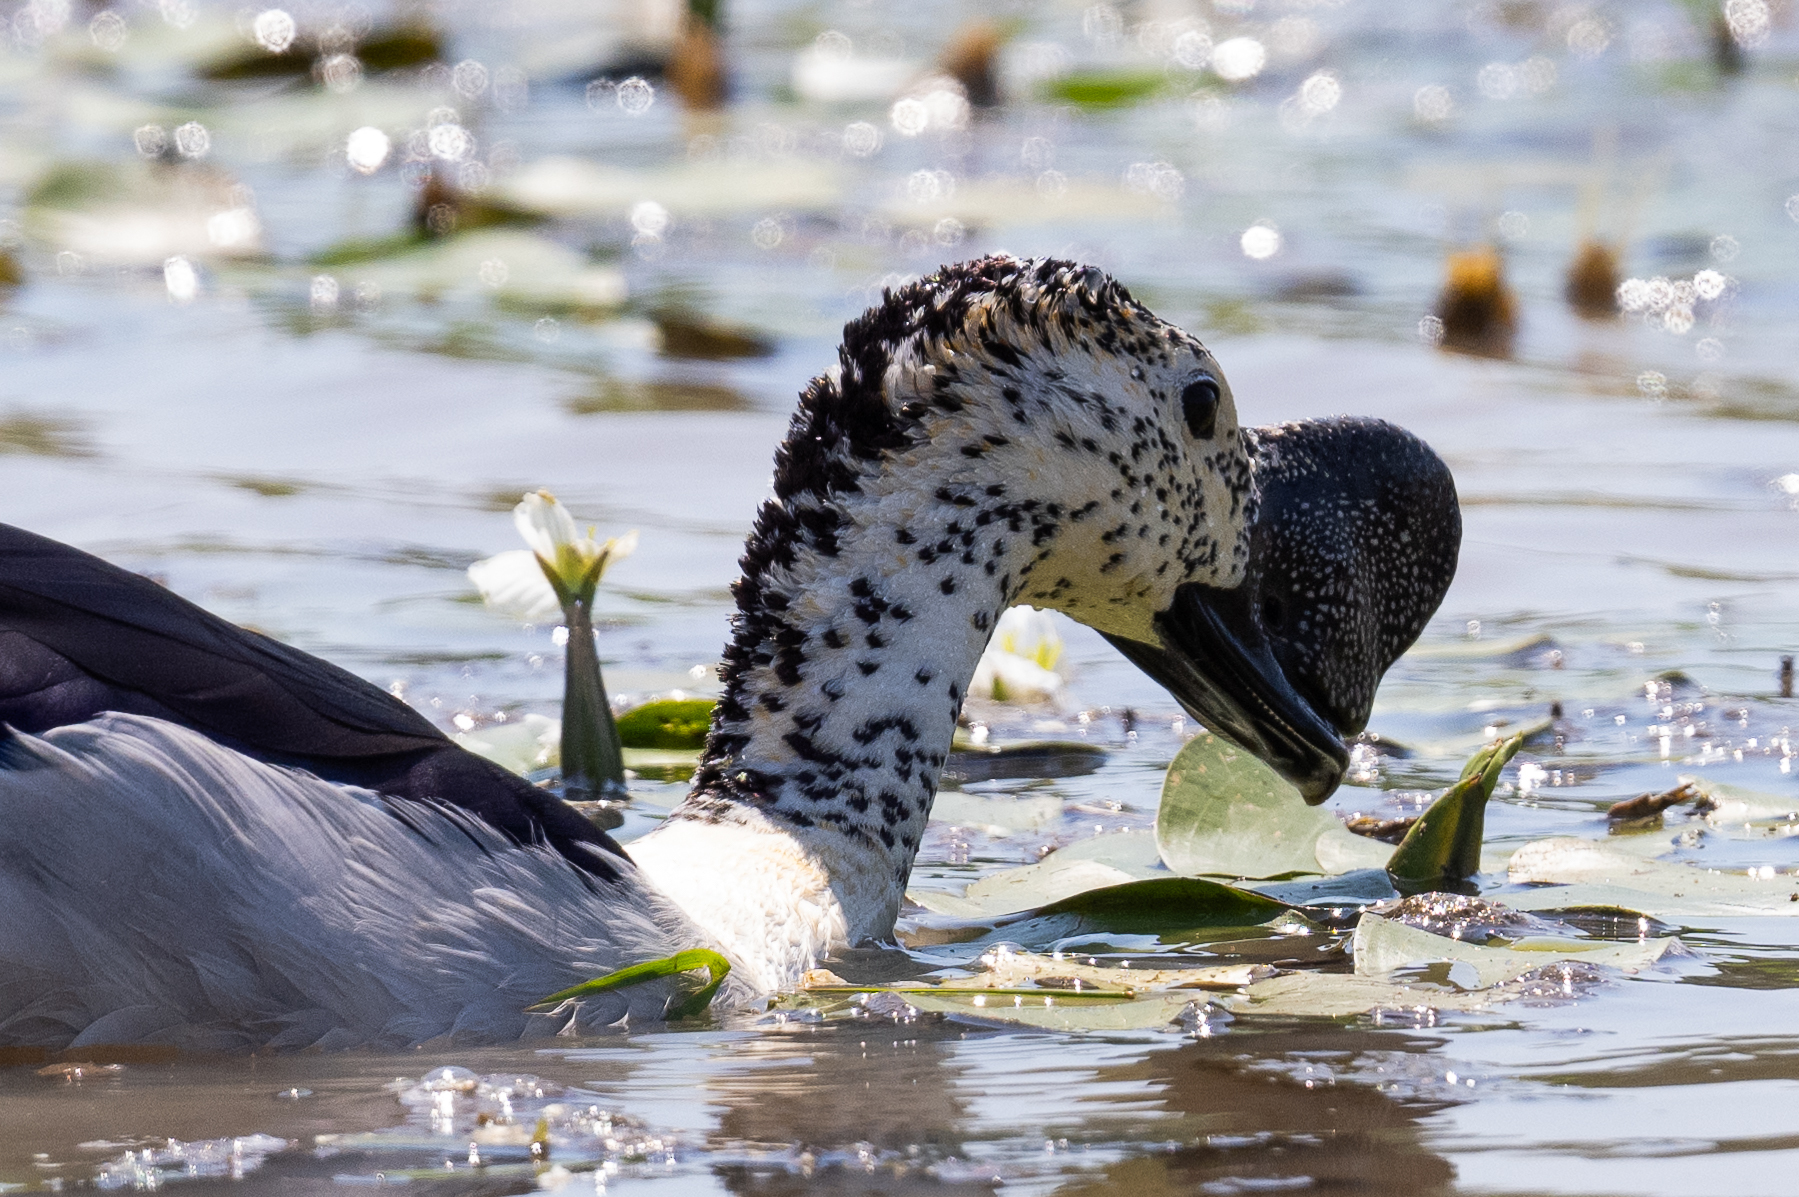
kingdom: Animalia
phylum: Chordata
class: Aves
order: Anseriformes
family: Anatidae
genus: Sarkidiornis
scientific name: Sarkidiornis melanotos
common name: Comb duck
